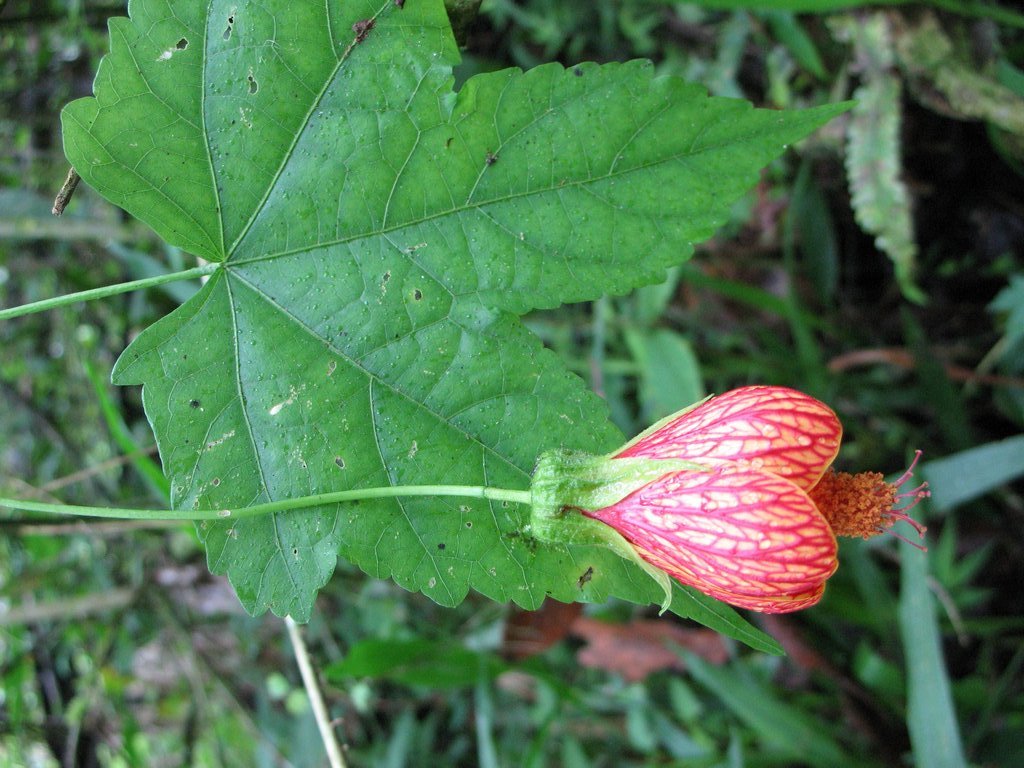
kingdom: Plantae
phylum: Tracheophyta
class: Magnoliopsida
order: Malvales
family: Malvaceae
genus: Callianthe
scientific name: Callianthe picta
